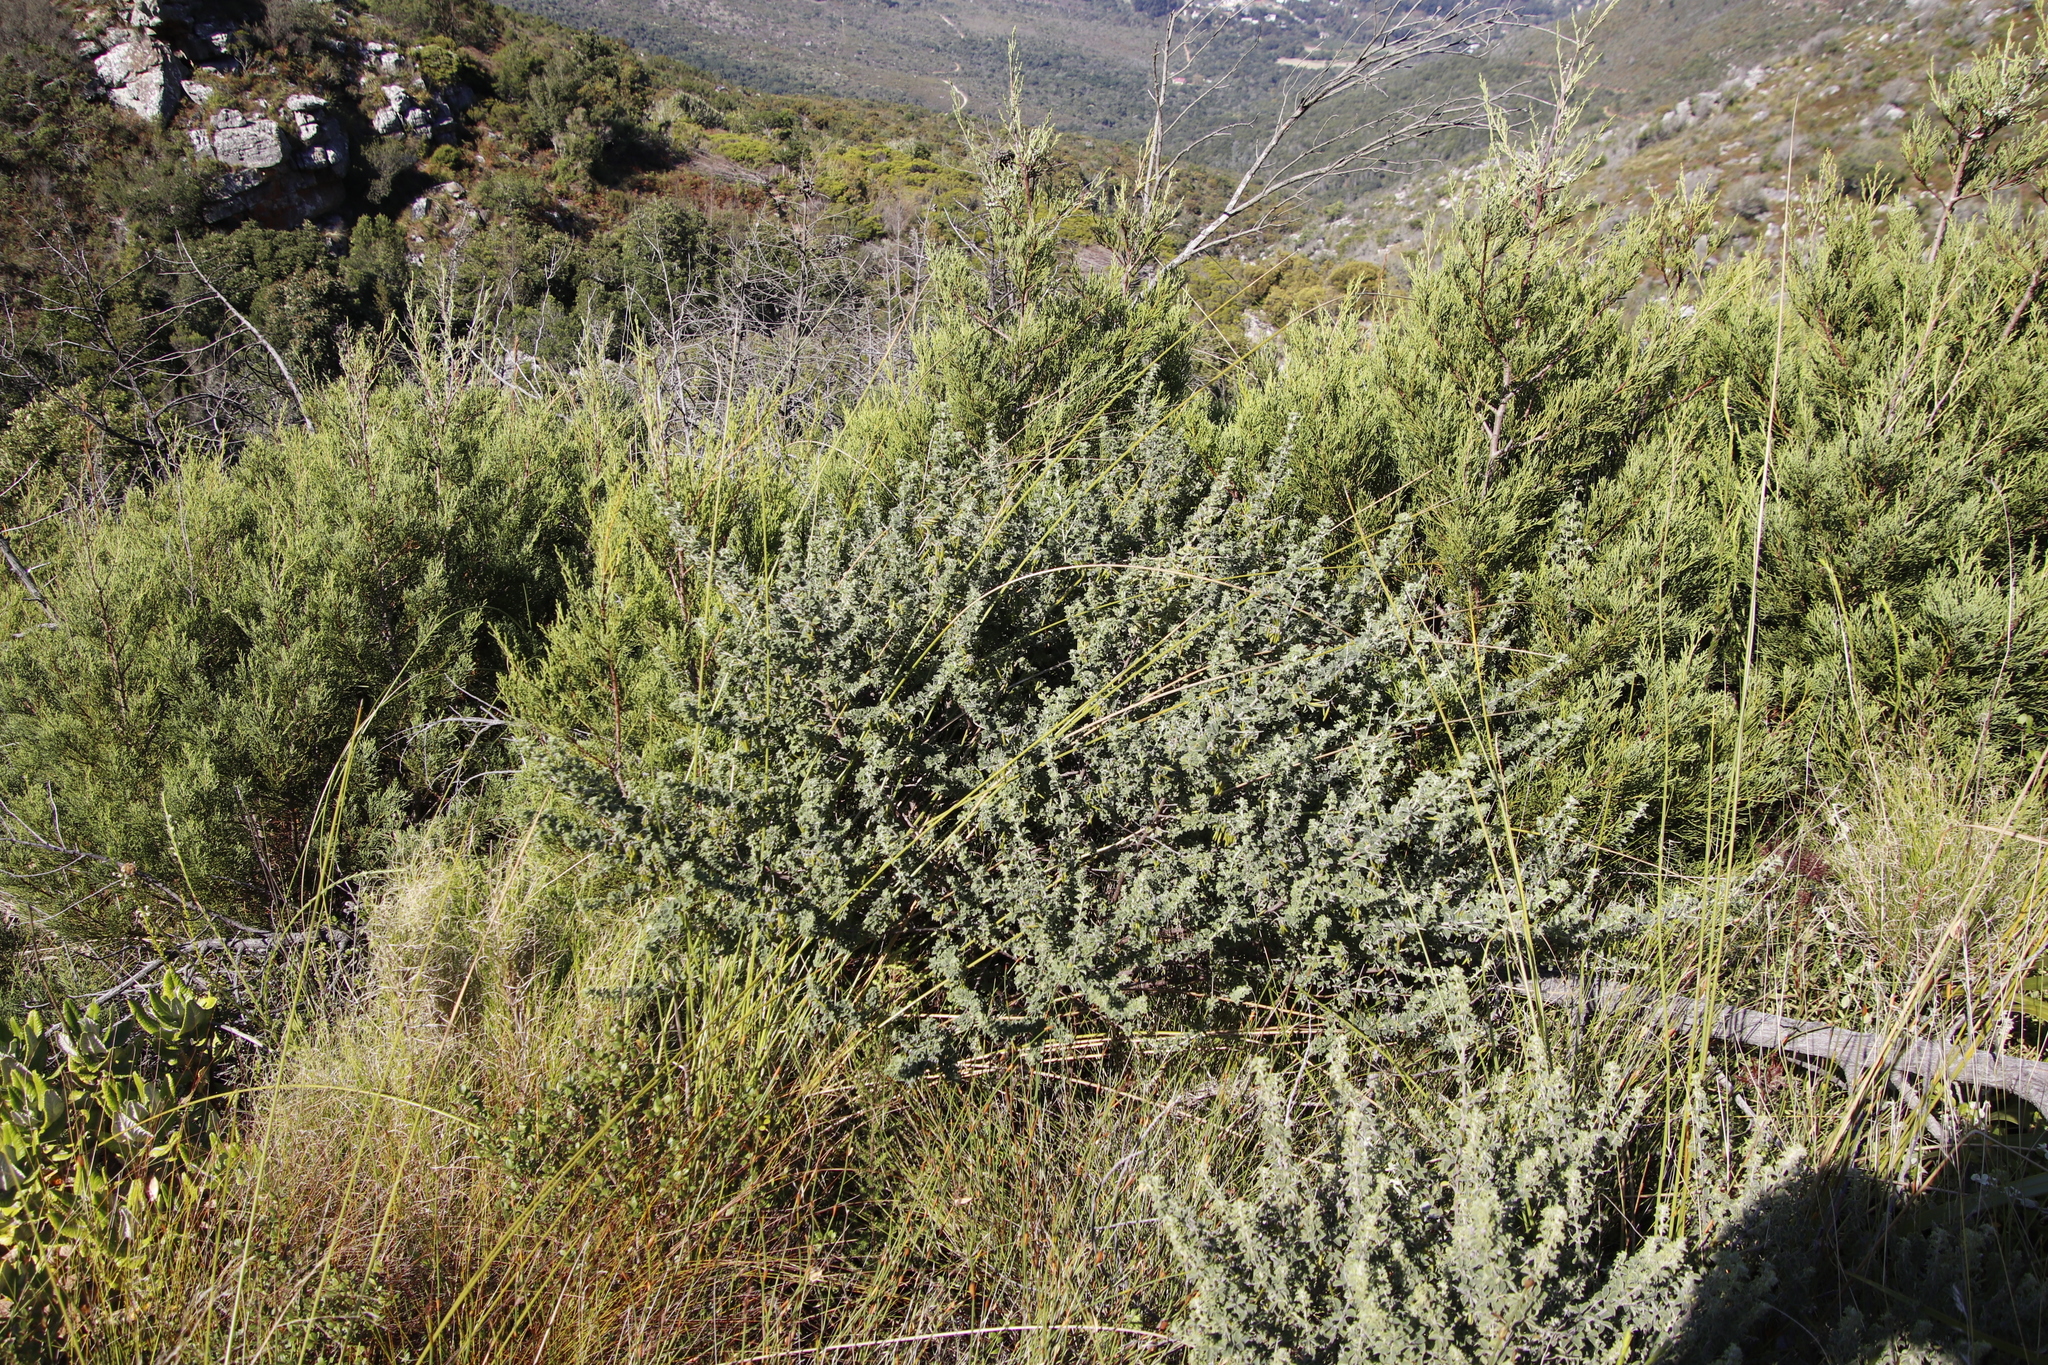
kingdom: Plantae
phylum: Tracheophyta
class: Magnoliopsida
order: Fabales
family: Fabaceae
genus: Indigofera
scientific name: Indigofera candolleana
